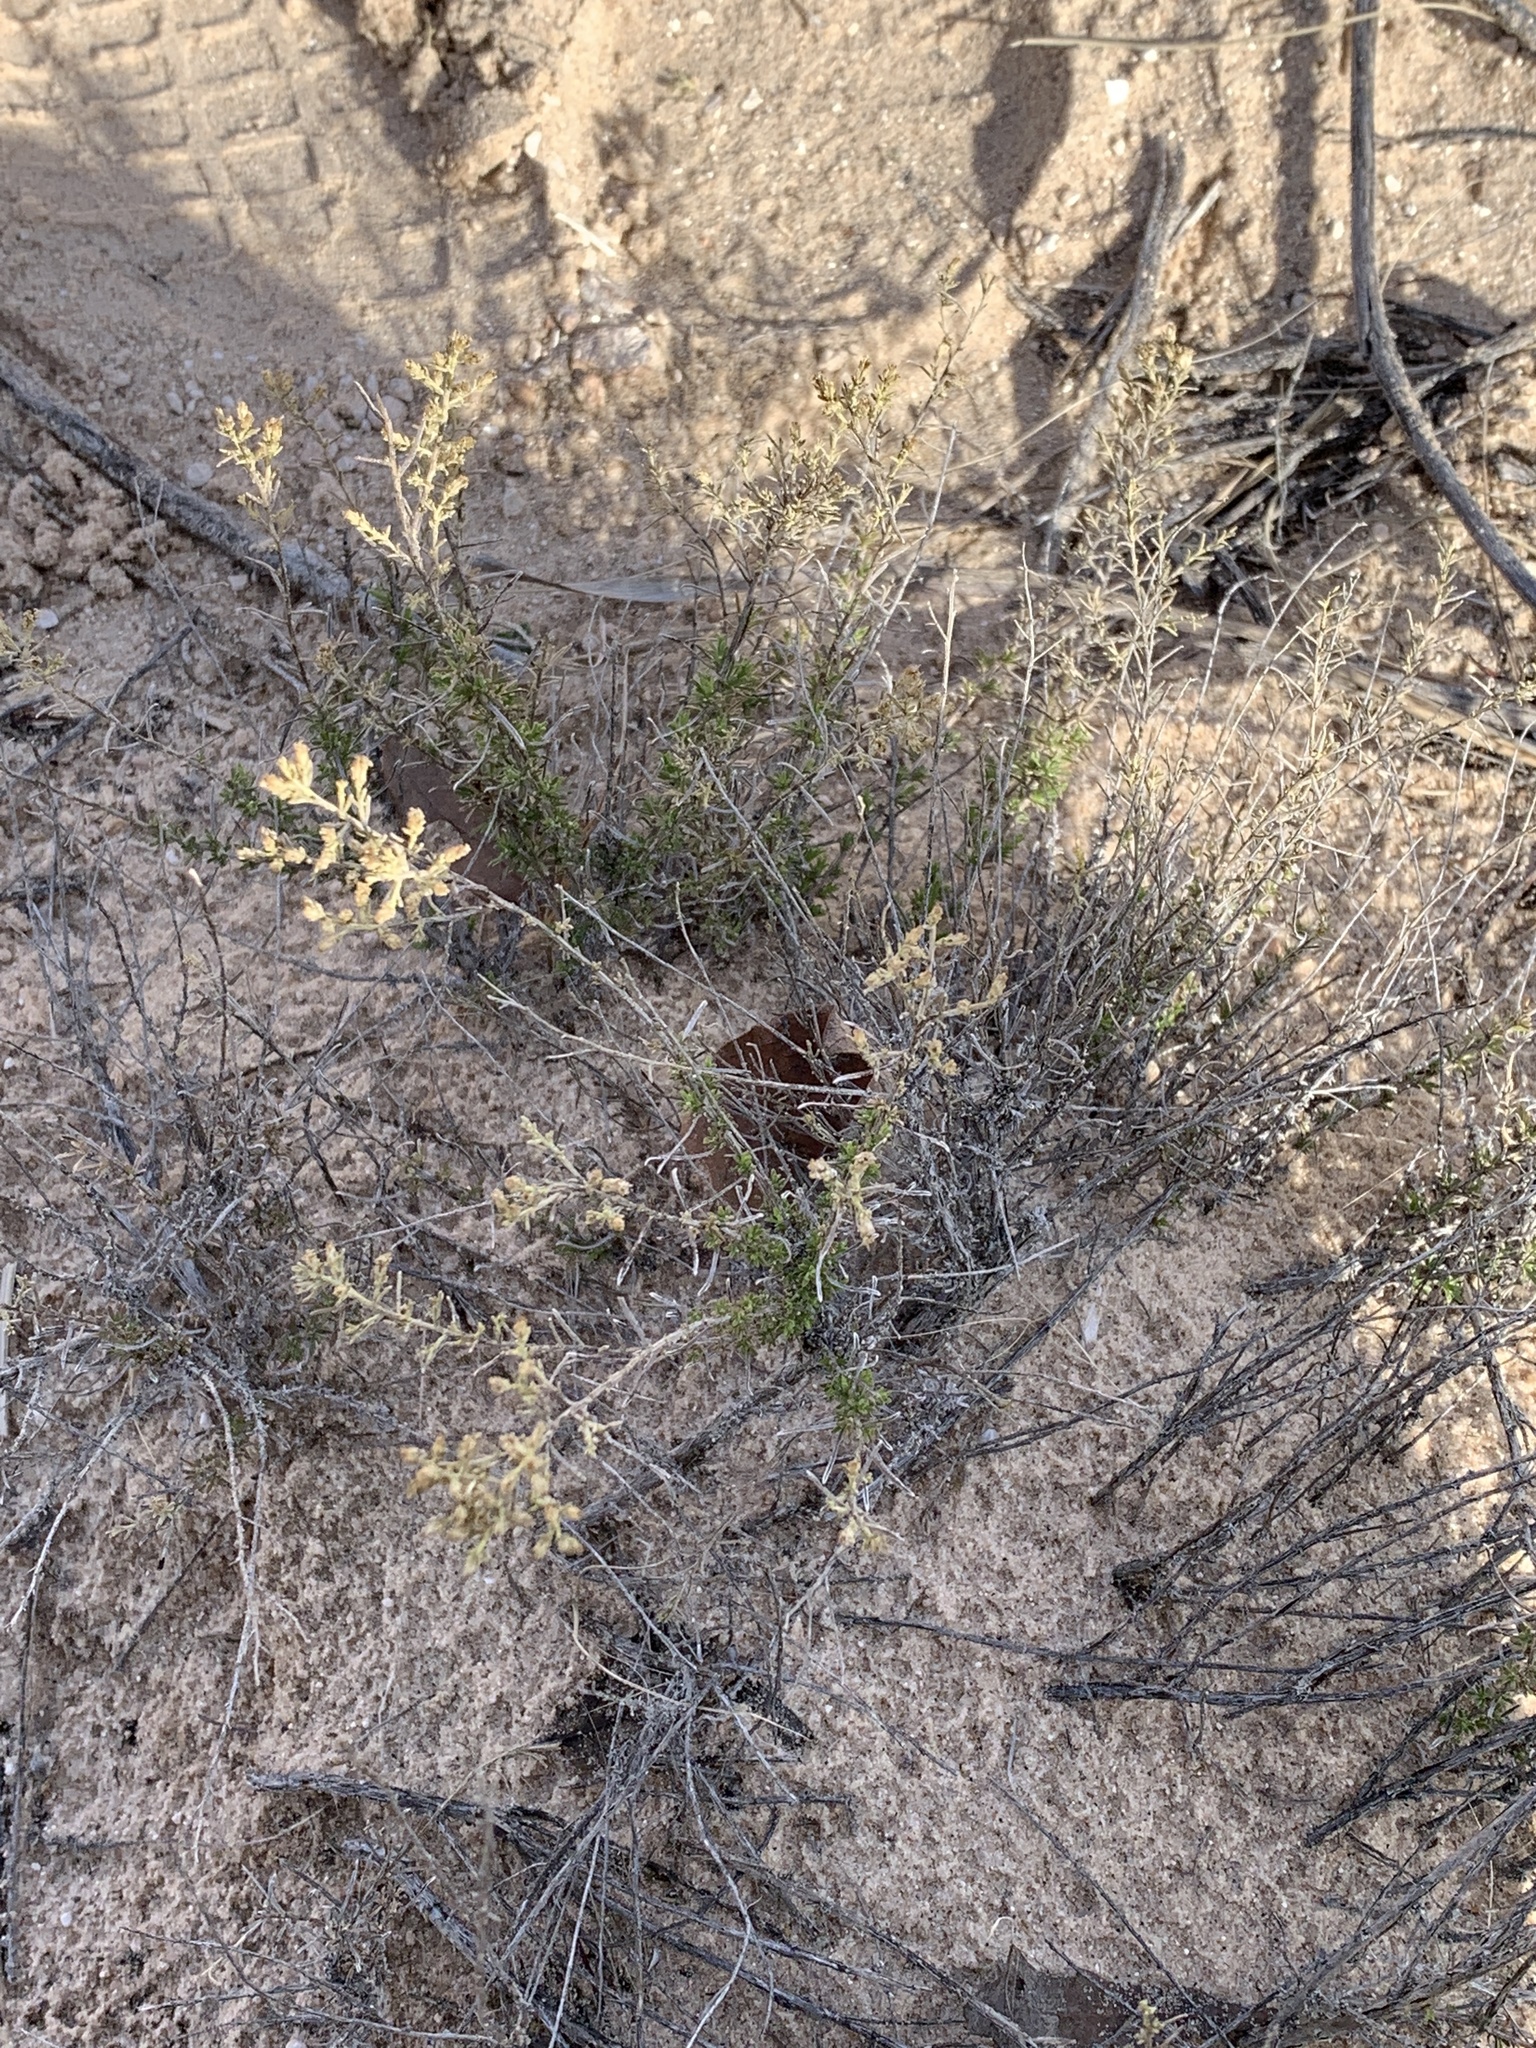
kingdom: Plantae
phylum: Tracheophyta
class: Magnoliopsida
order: Asterales
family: Asteraceae
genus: Gutierrezia
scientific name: Gutierrezia sarothrae
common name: Broom snakeweed
